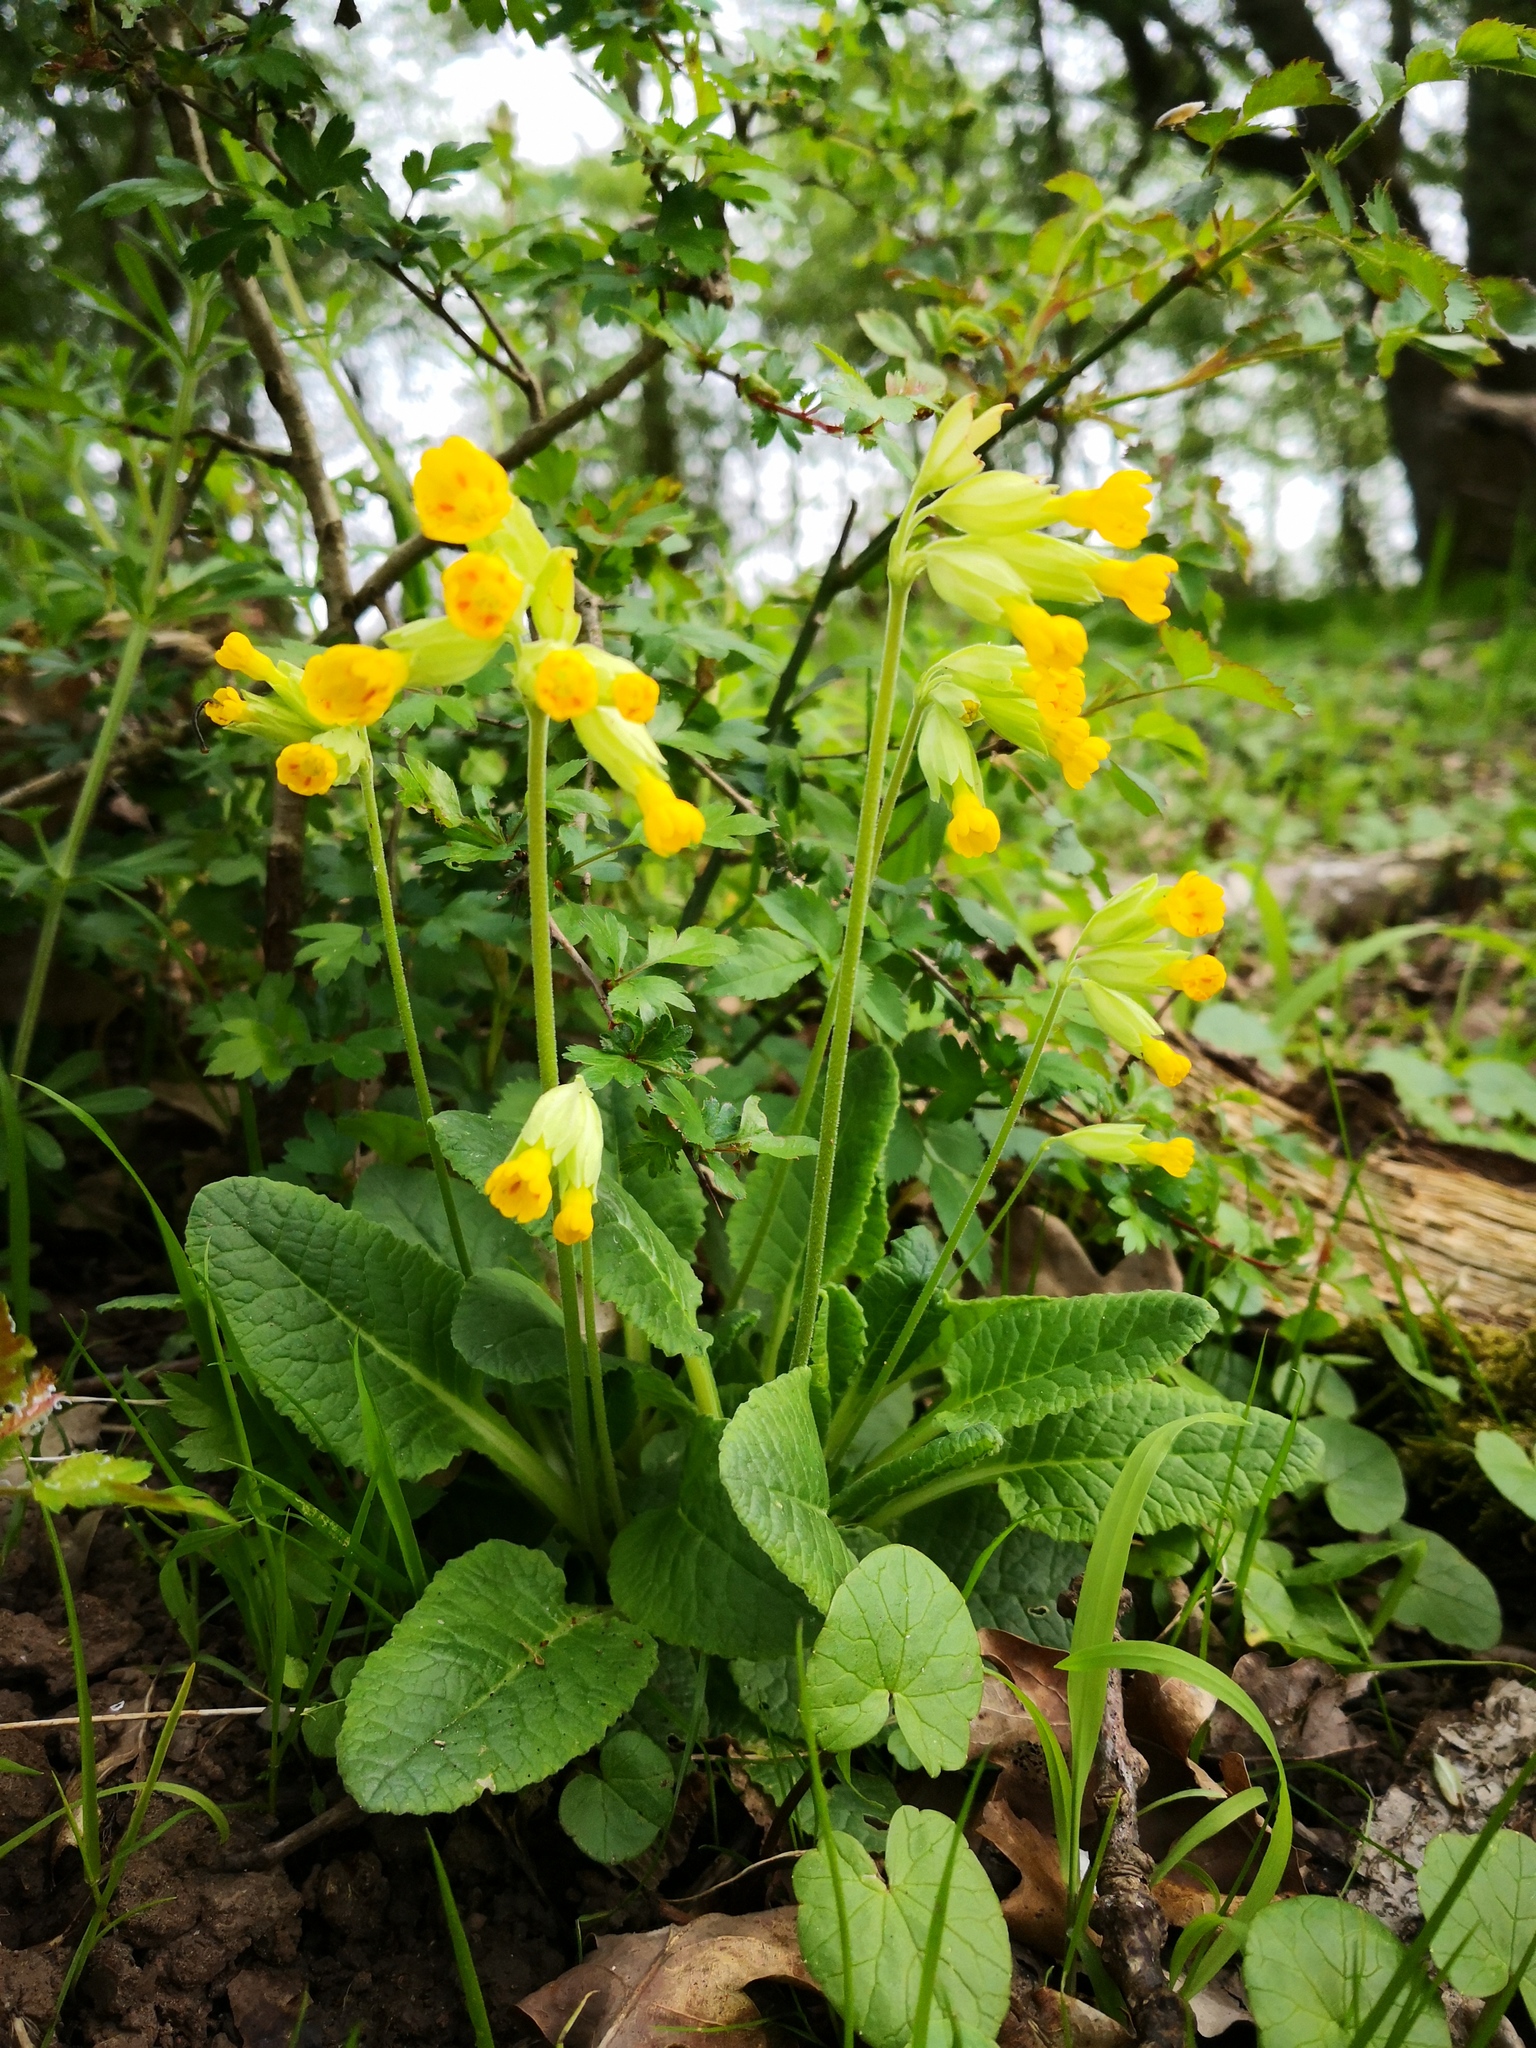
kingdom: Plantae
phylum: Tracheophyta
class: Magnoliopsida
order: Ericales
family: Primulaceae
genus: Primula
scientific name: Primula veris
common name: Cowslip
